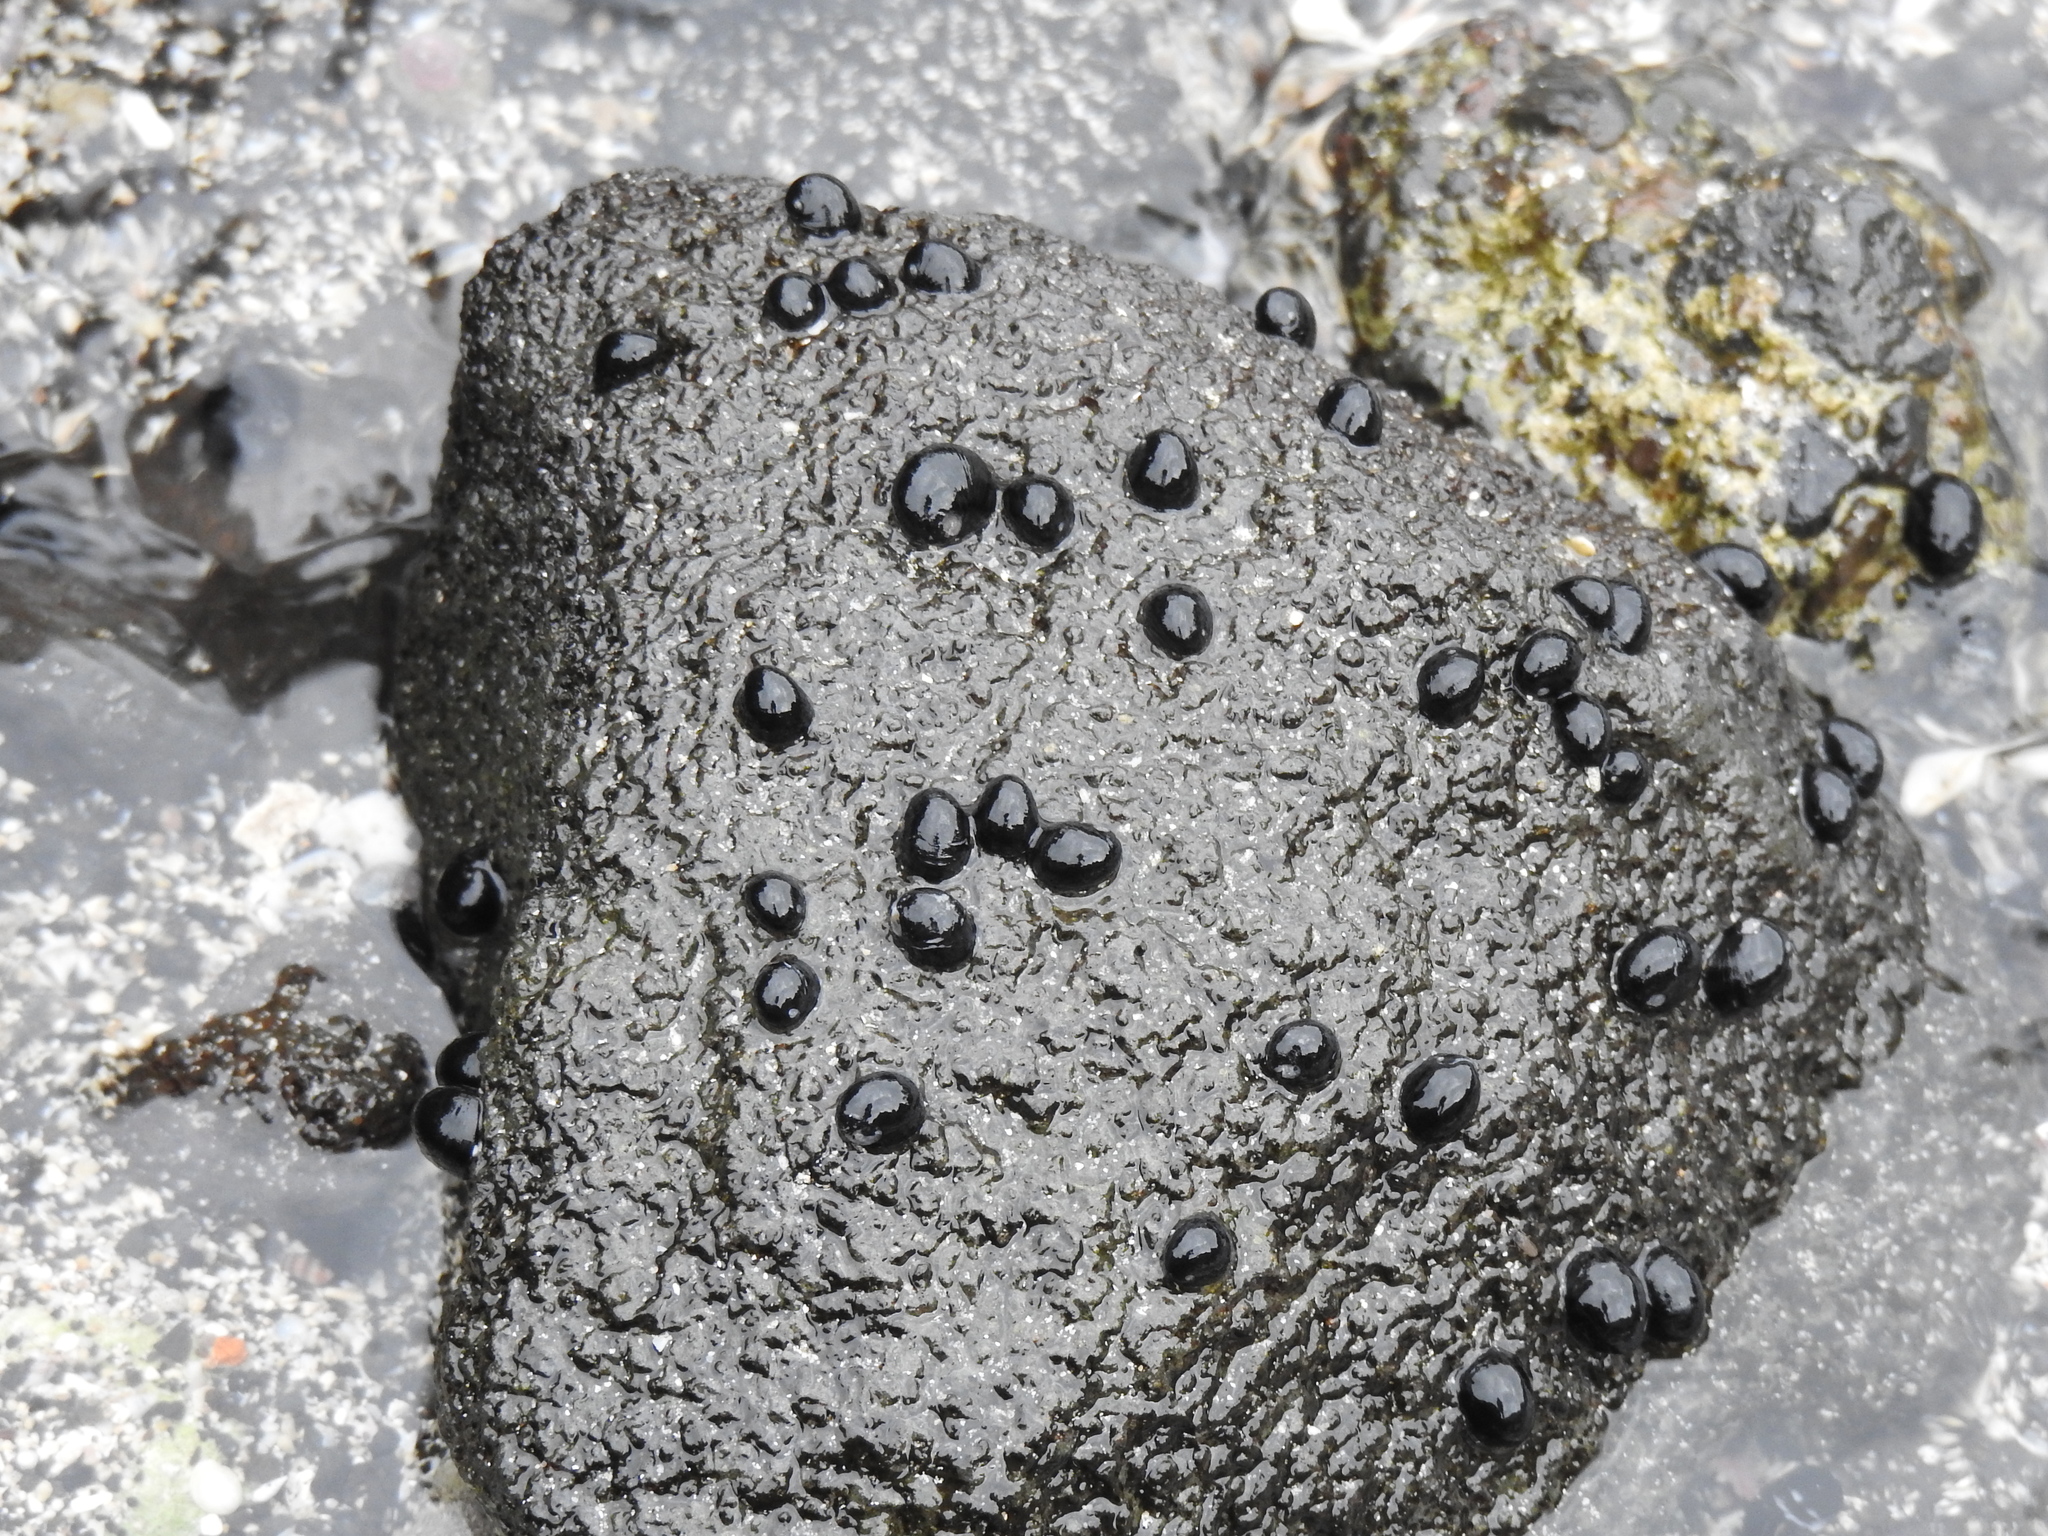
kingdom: Animalia
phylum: Mollusca
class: Gastropoda
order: Cycloneritida
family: Neritidae
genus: Nerita
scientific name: Nerita picea
